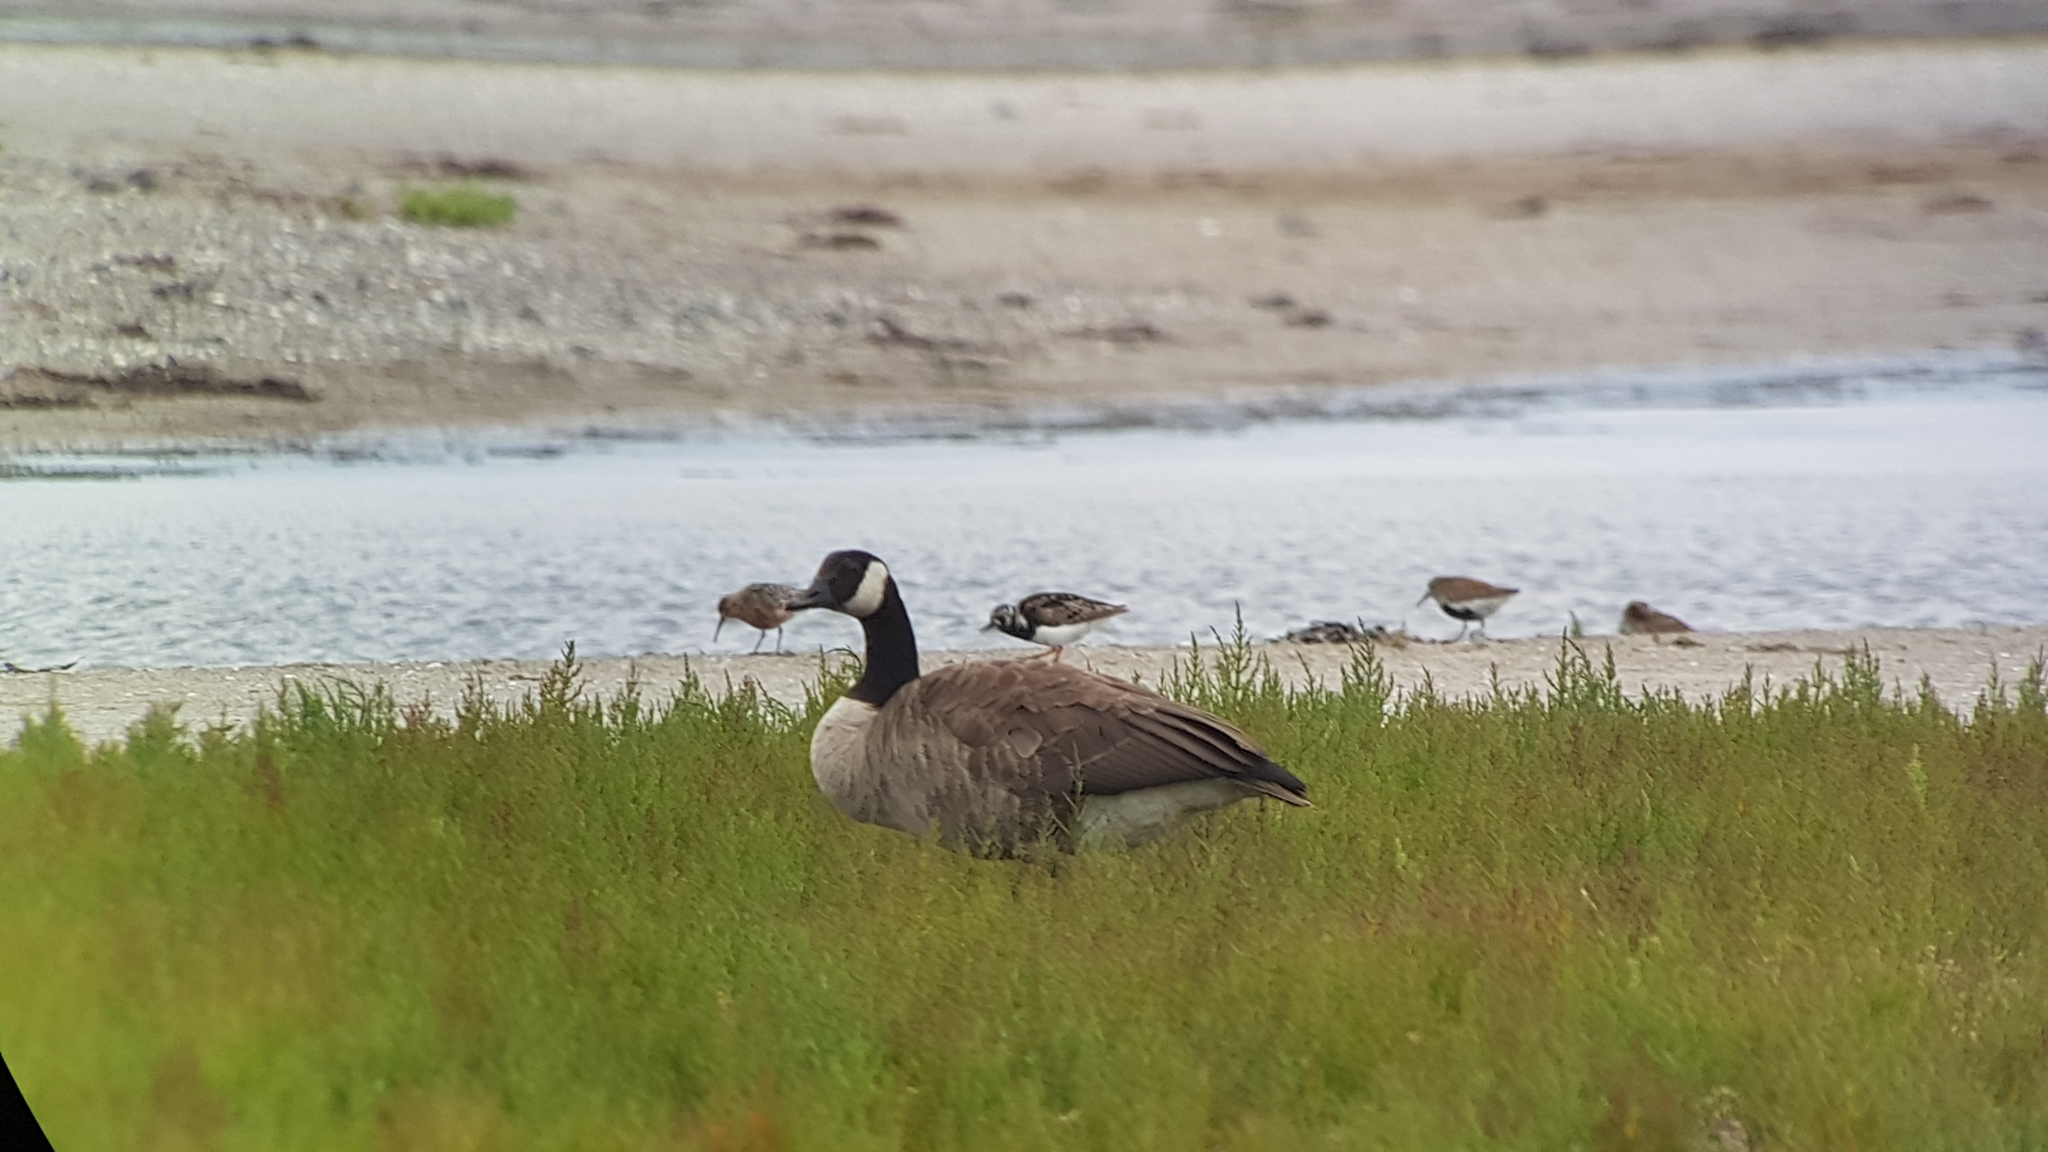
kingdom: Animalia
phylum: Chordata
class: Aves
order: Anseriformes
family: Anatidae
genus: Branta
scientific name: Branta canadensis
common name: Canada goose
